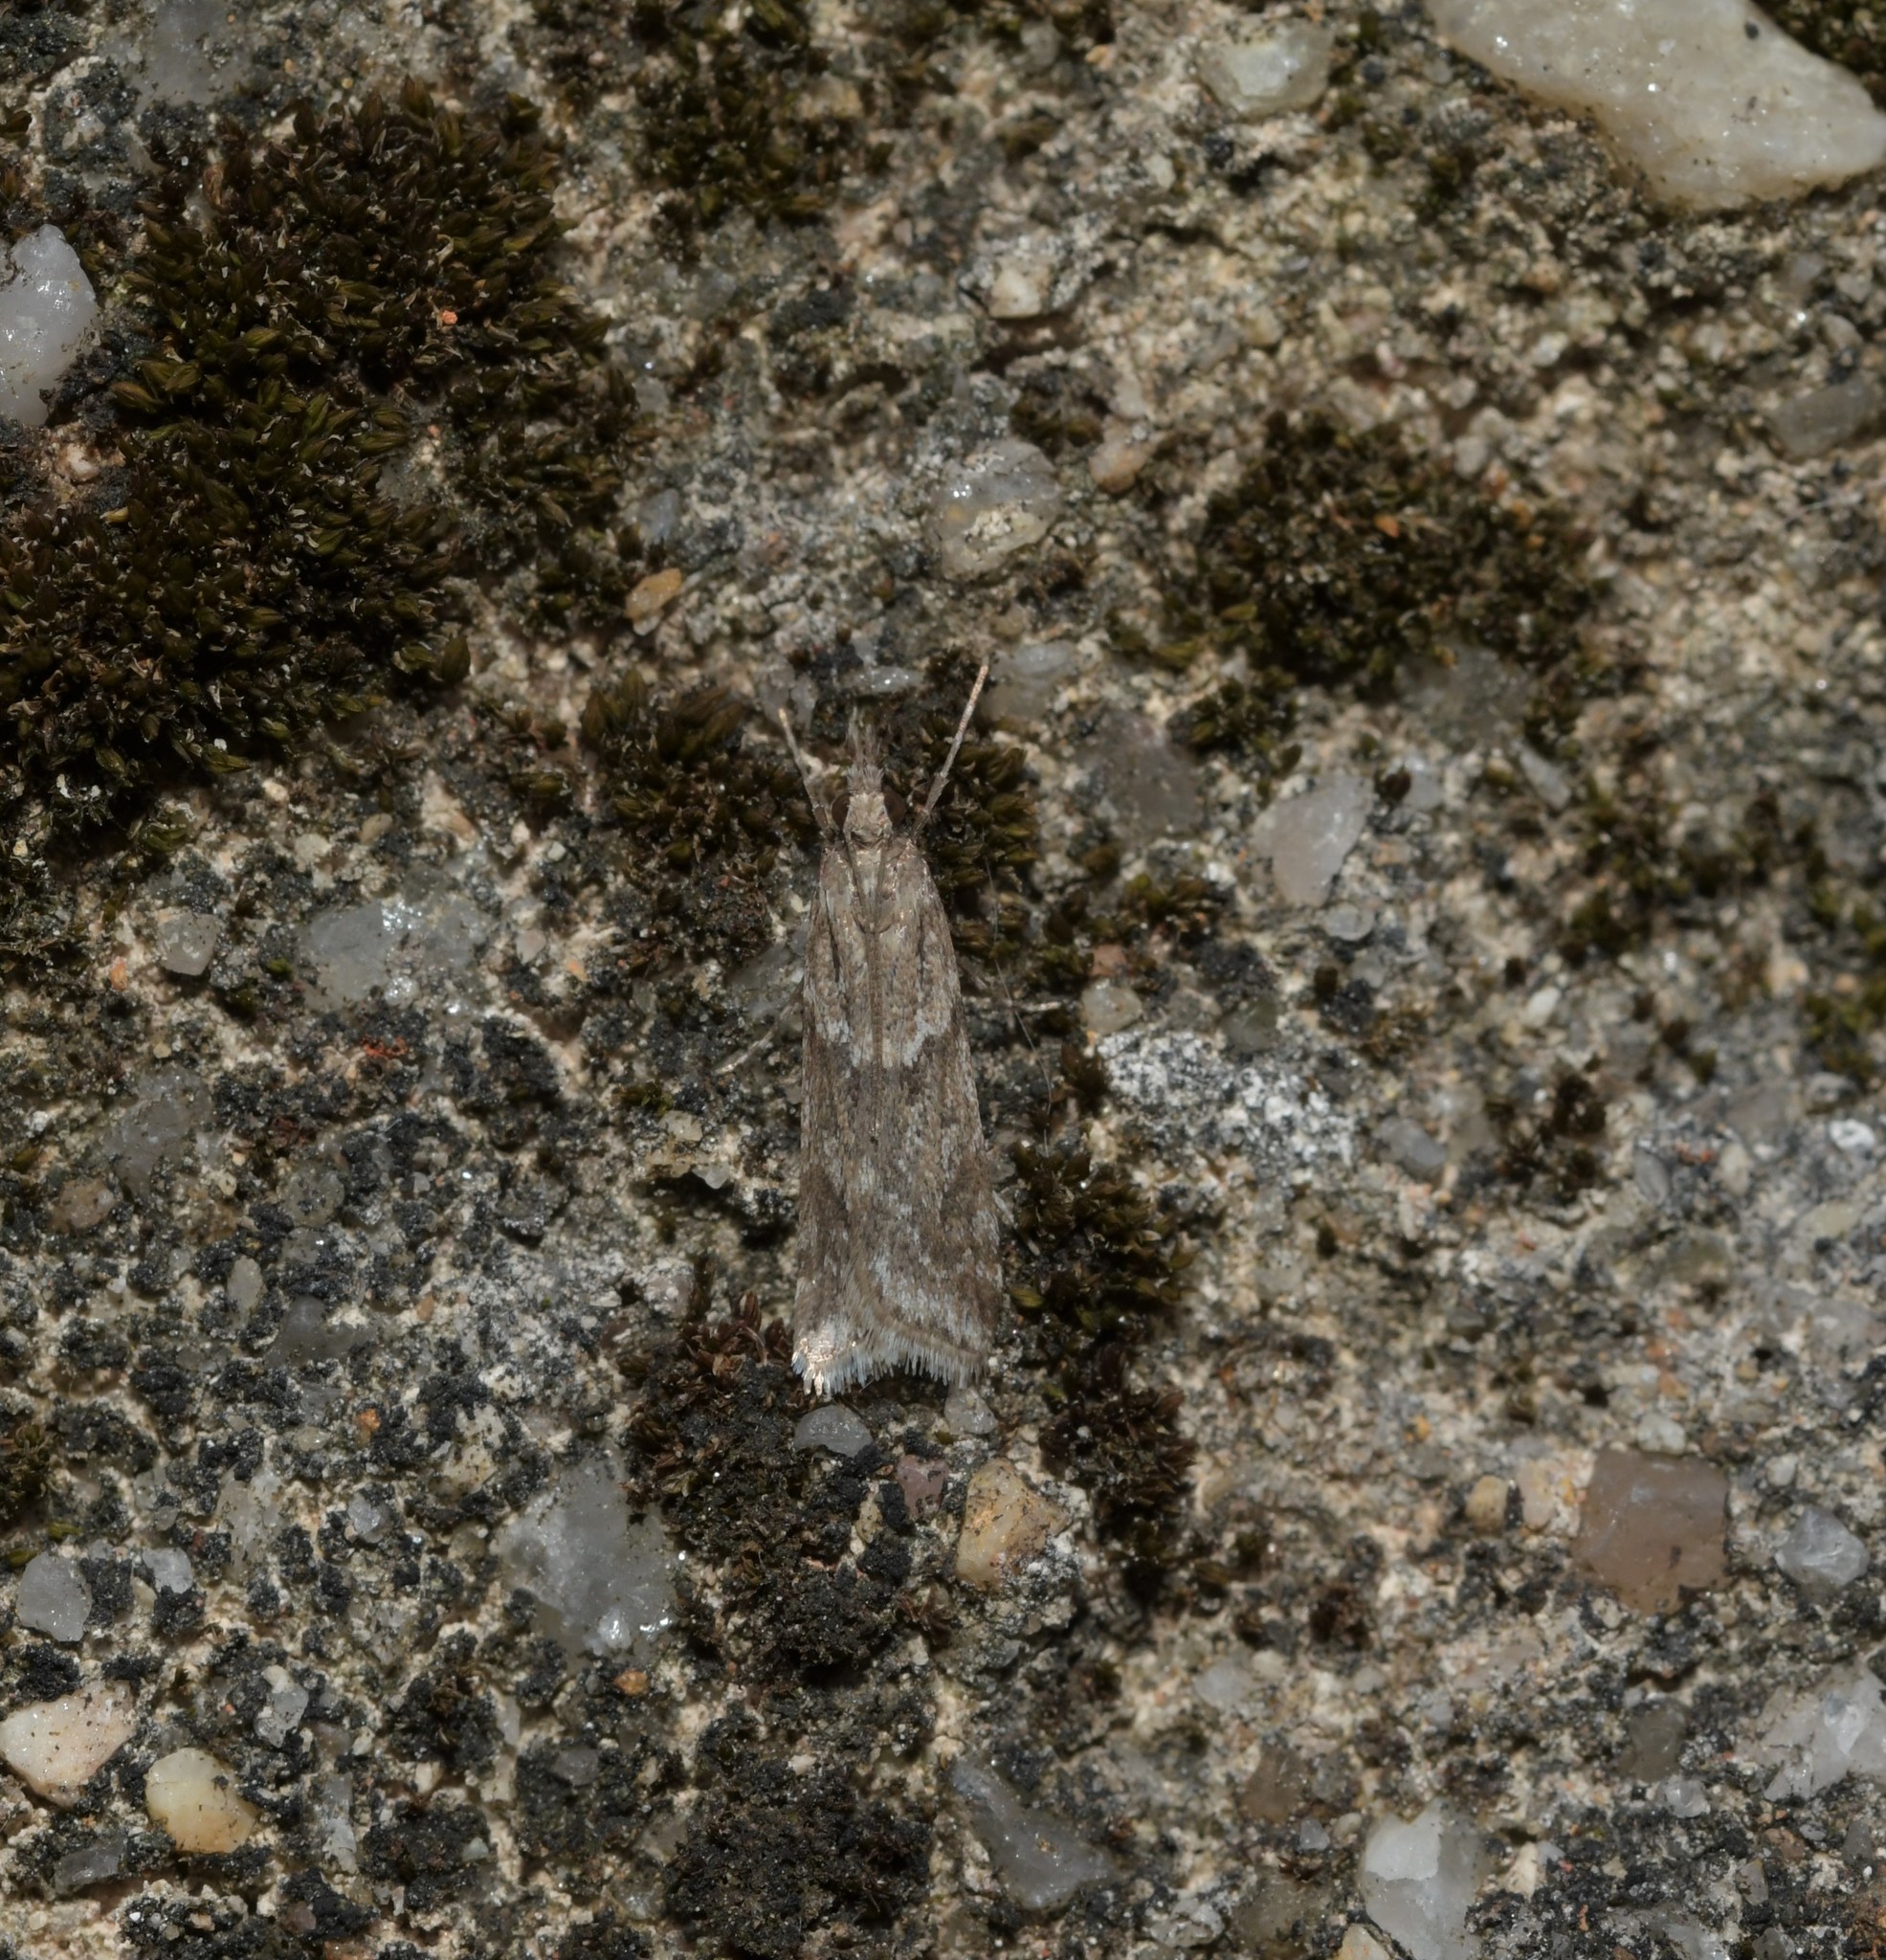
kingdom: Animalia
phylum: Arthropoda
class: Insecta
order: Lepidoptera
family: Crambidae
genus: Eudonia
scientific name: Eudonia angustea
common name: Narrow-winged grey
